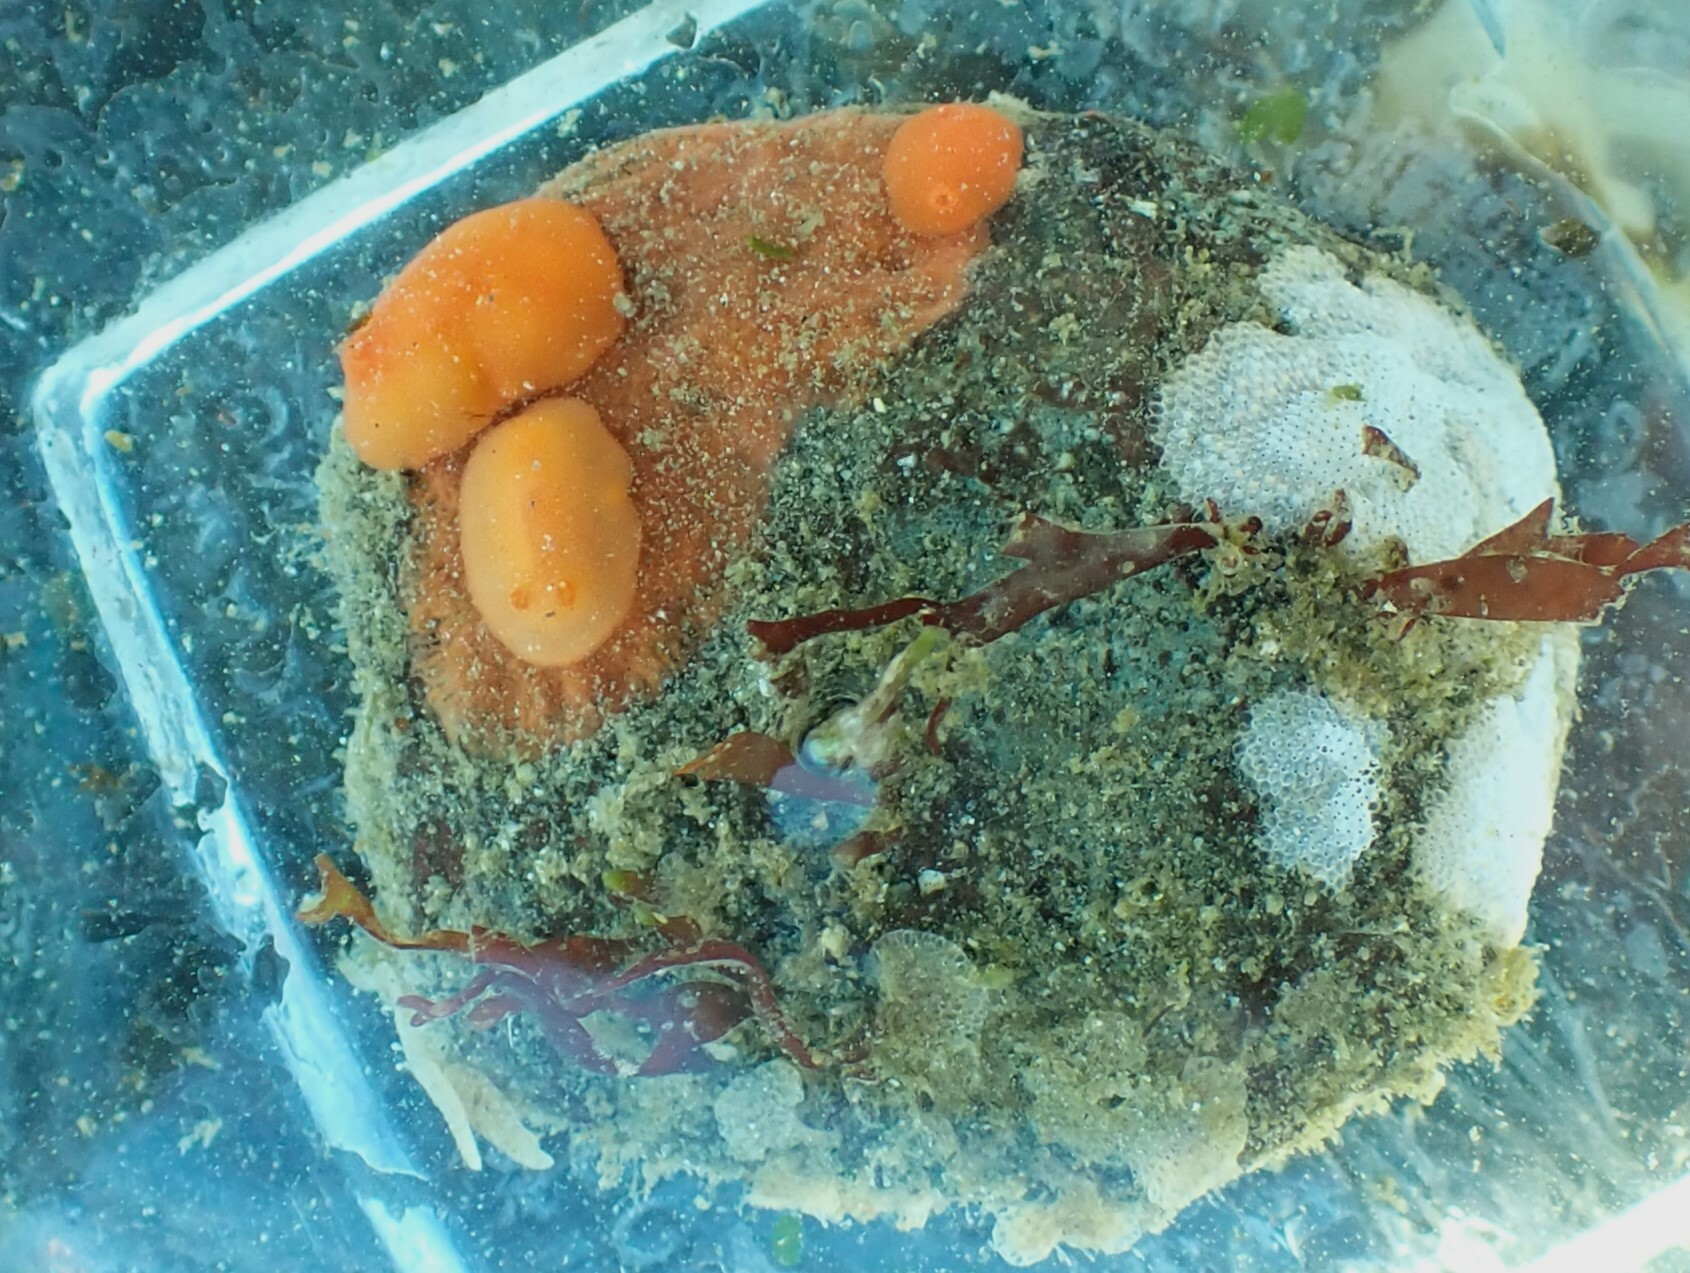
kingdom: Animalia
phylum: Mollusca
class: Gastropoda
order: Nudibranchia
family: Discodorididae
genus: Rostanga
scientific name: Rostanga pulchra
